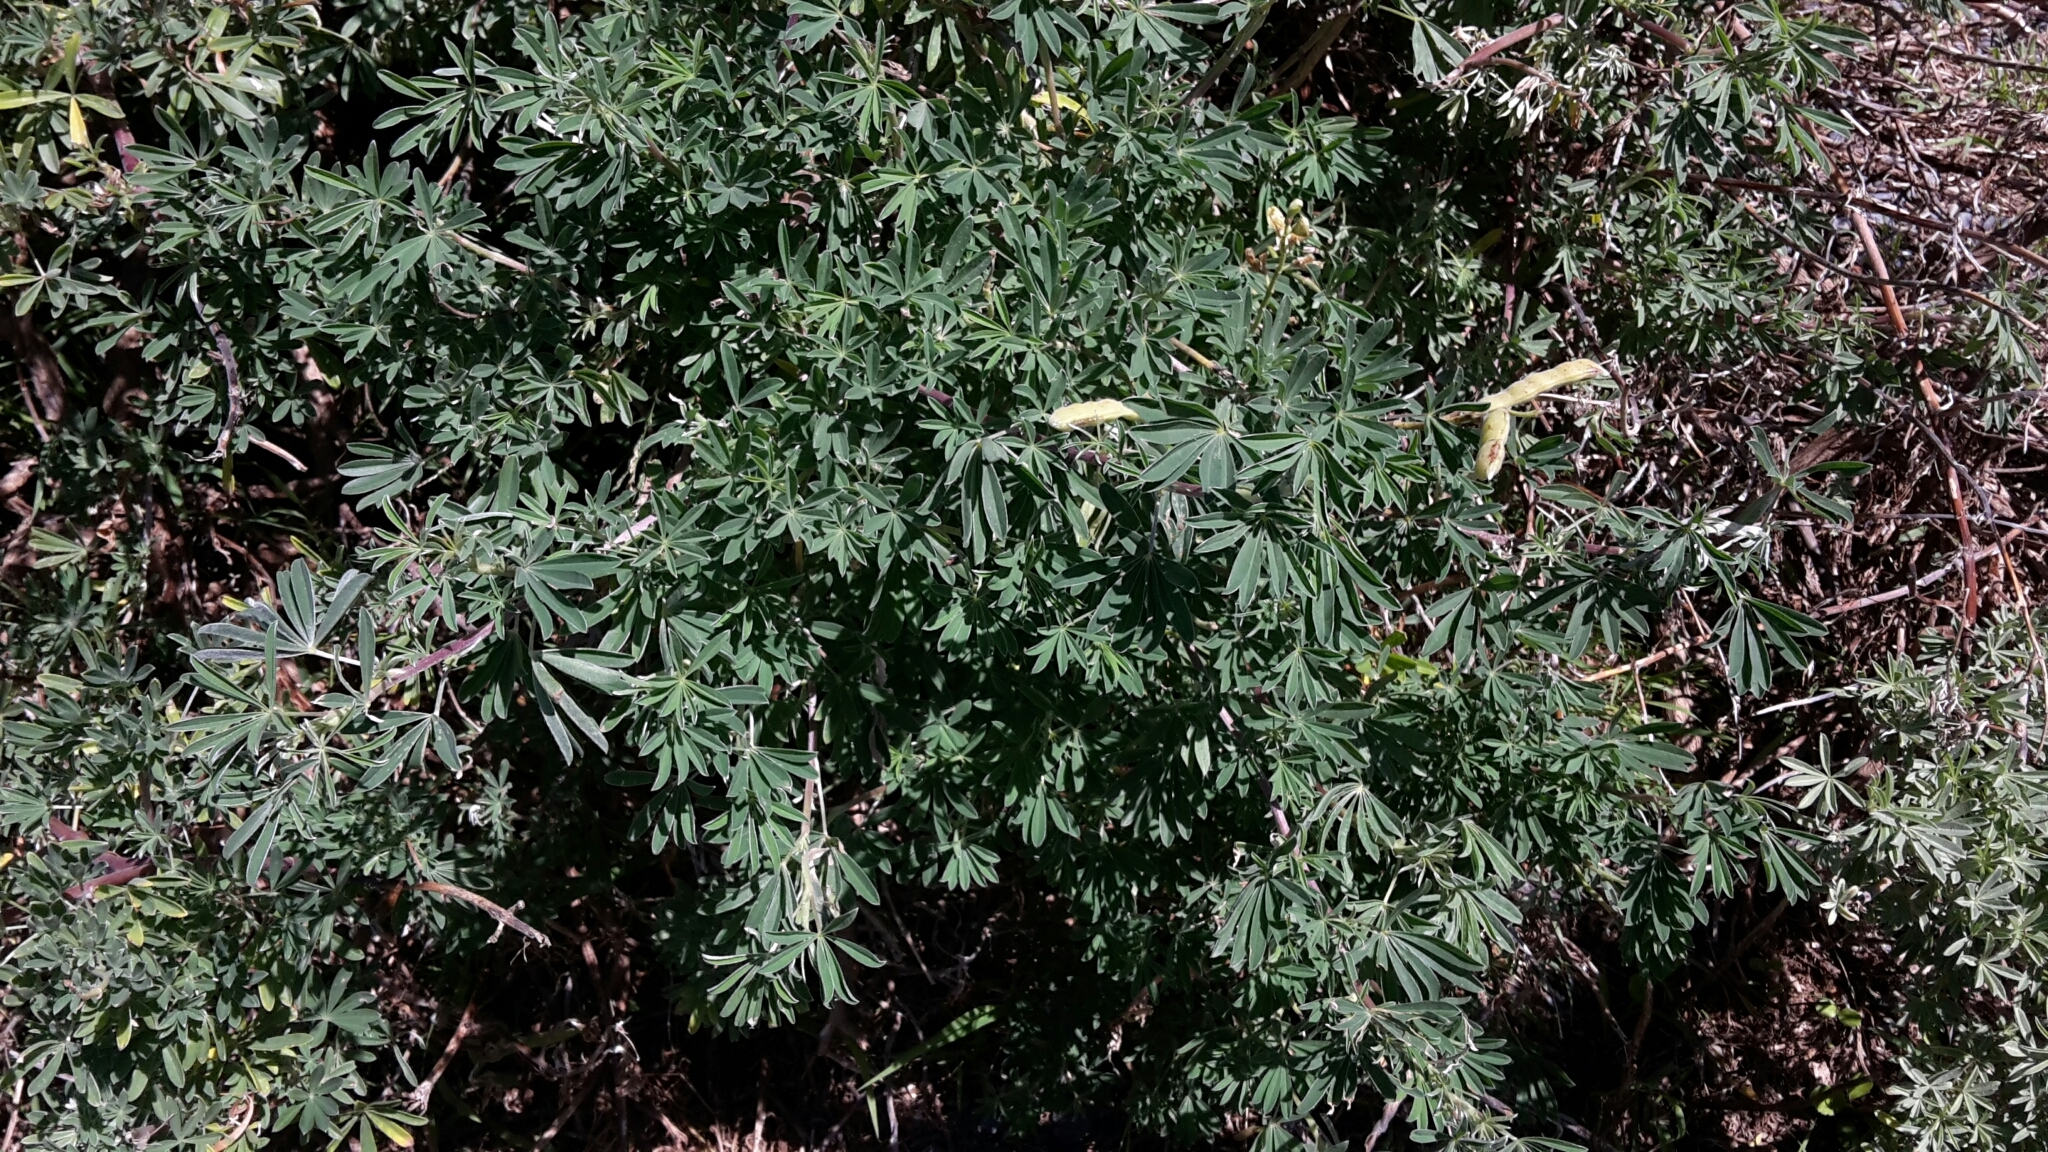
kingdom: Plantae
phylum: Tracheophyta
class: Magnoliopsida
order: Fabales
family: Fabaceae
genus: Lupinus
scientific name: Lupinus arboreus
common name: Yellow bush lupine
